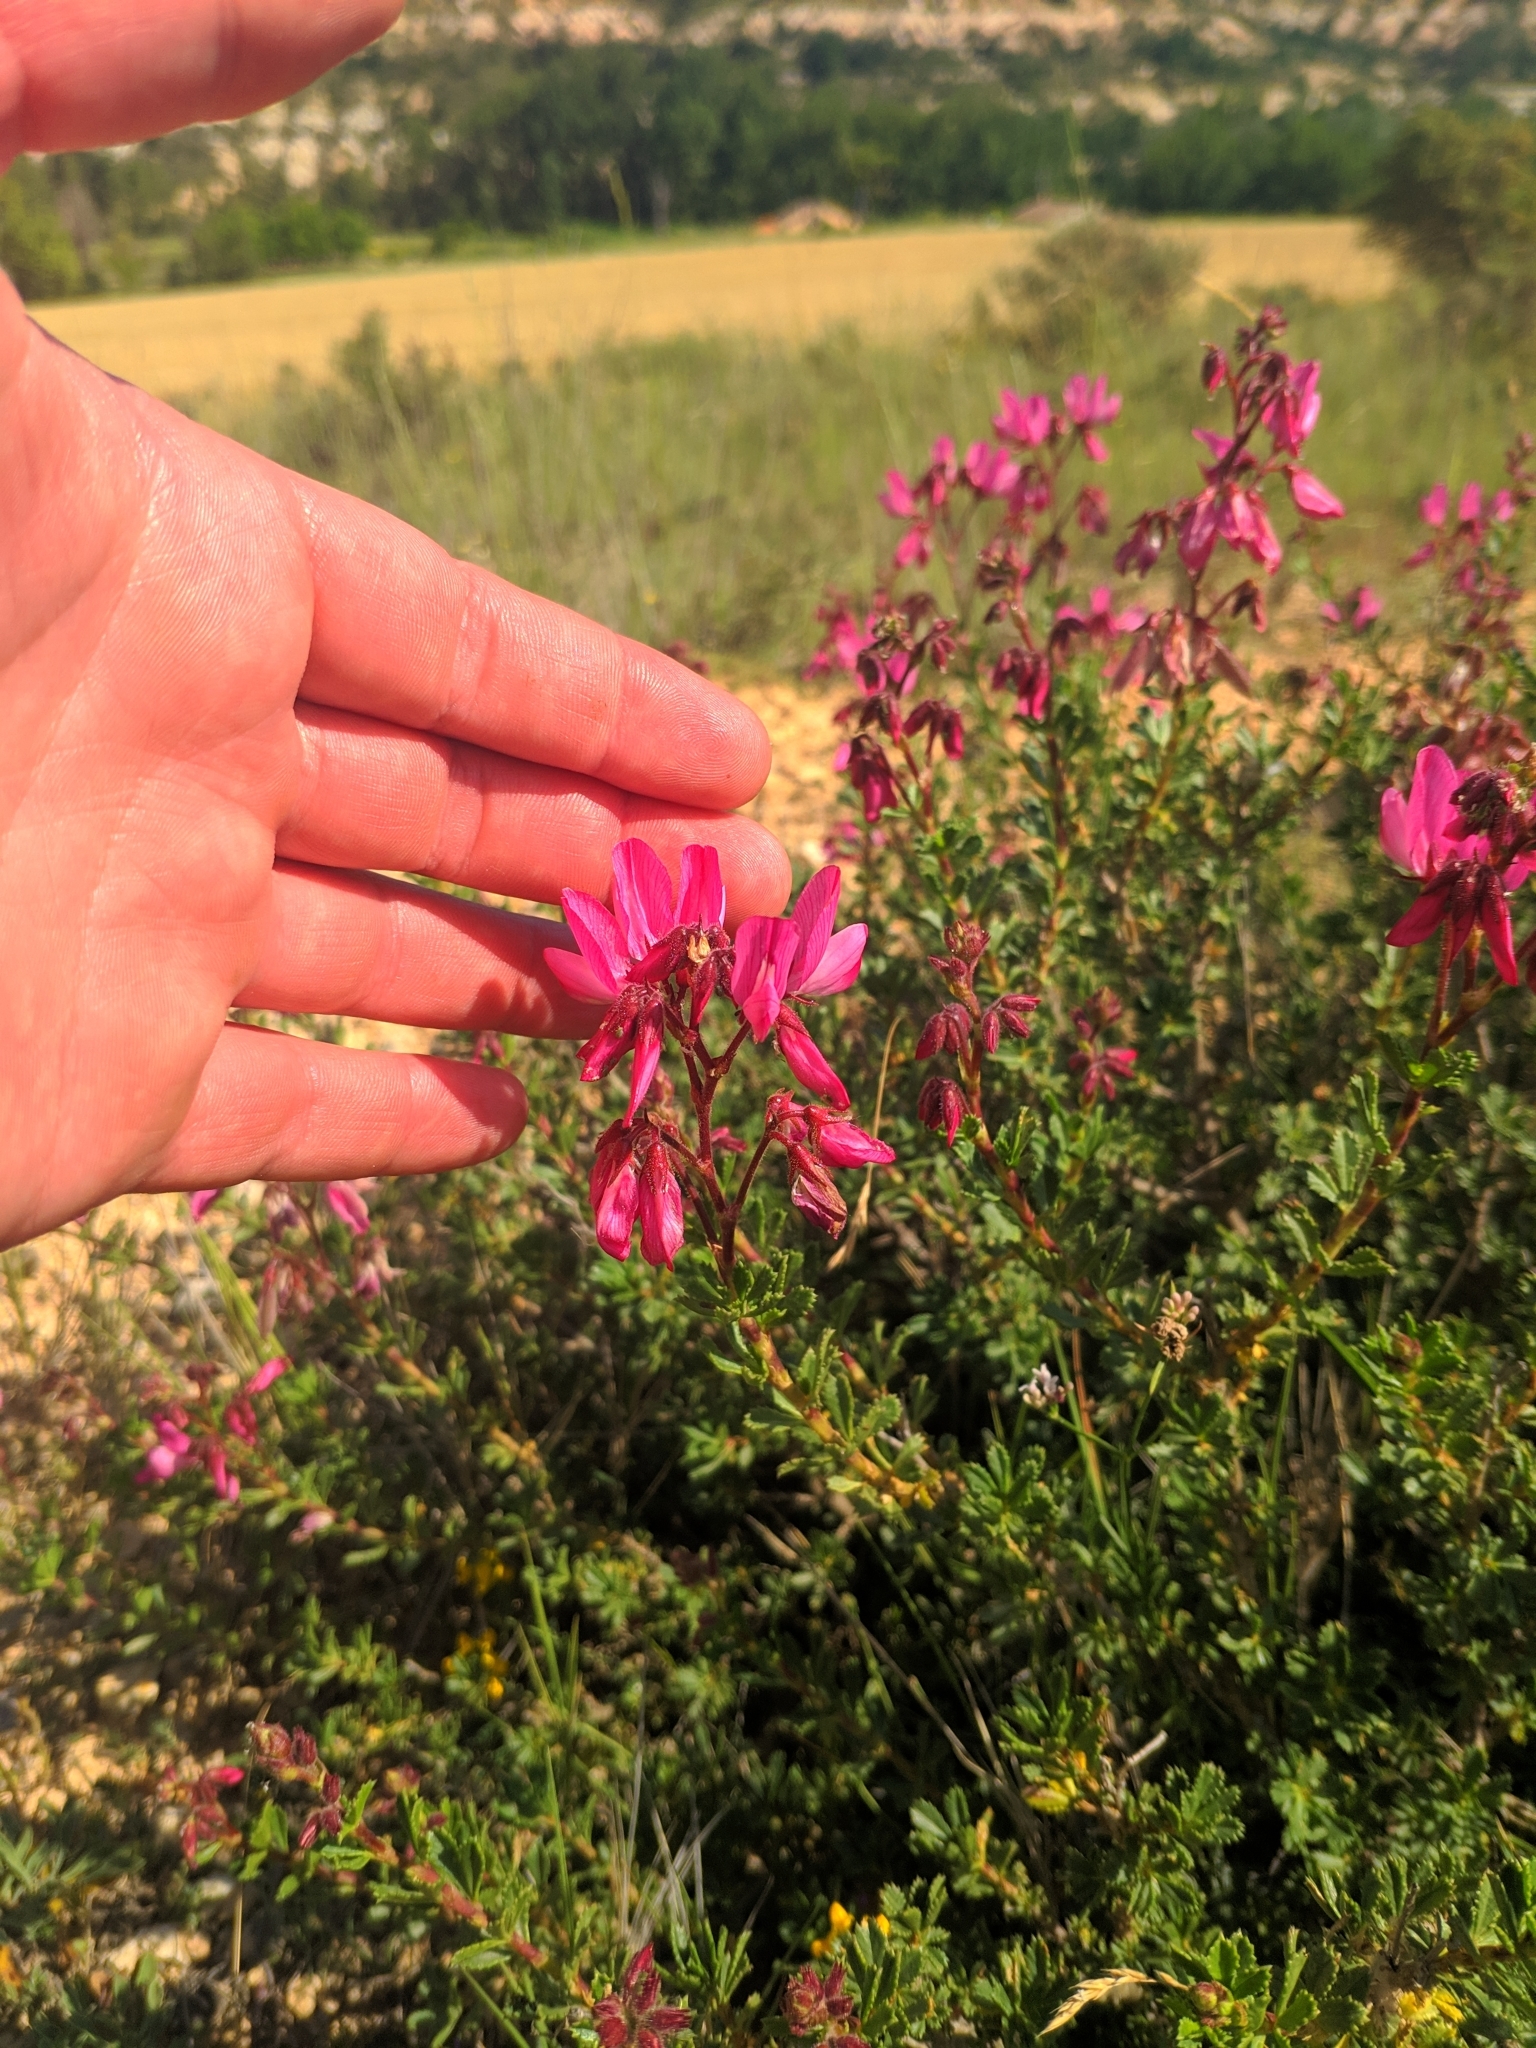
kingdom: Plantae
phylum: Tracheophyta
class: Magnoliopsida
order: Fabales
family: Fabaceae
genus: Ononis
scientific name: Ononis fruticosa
